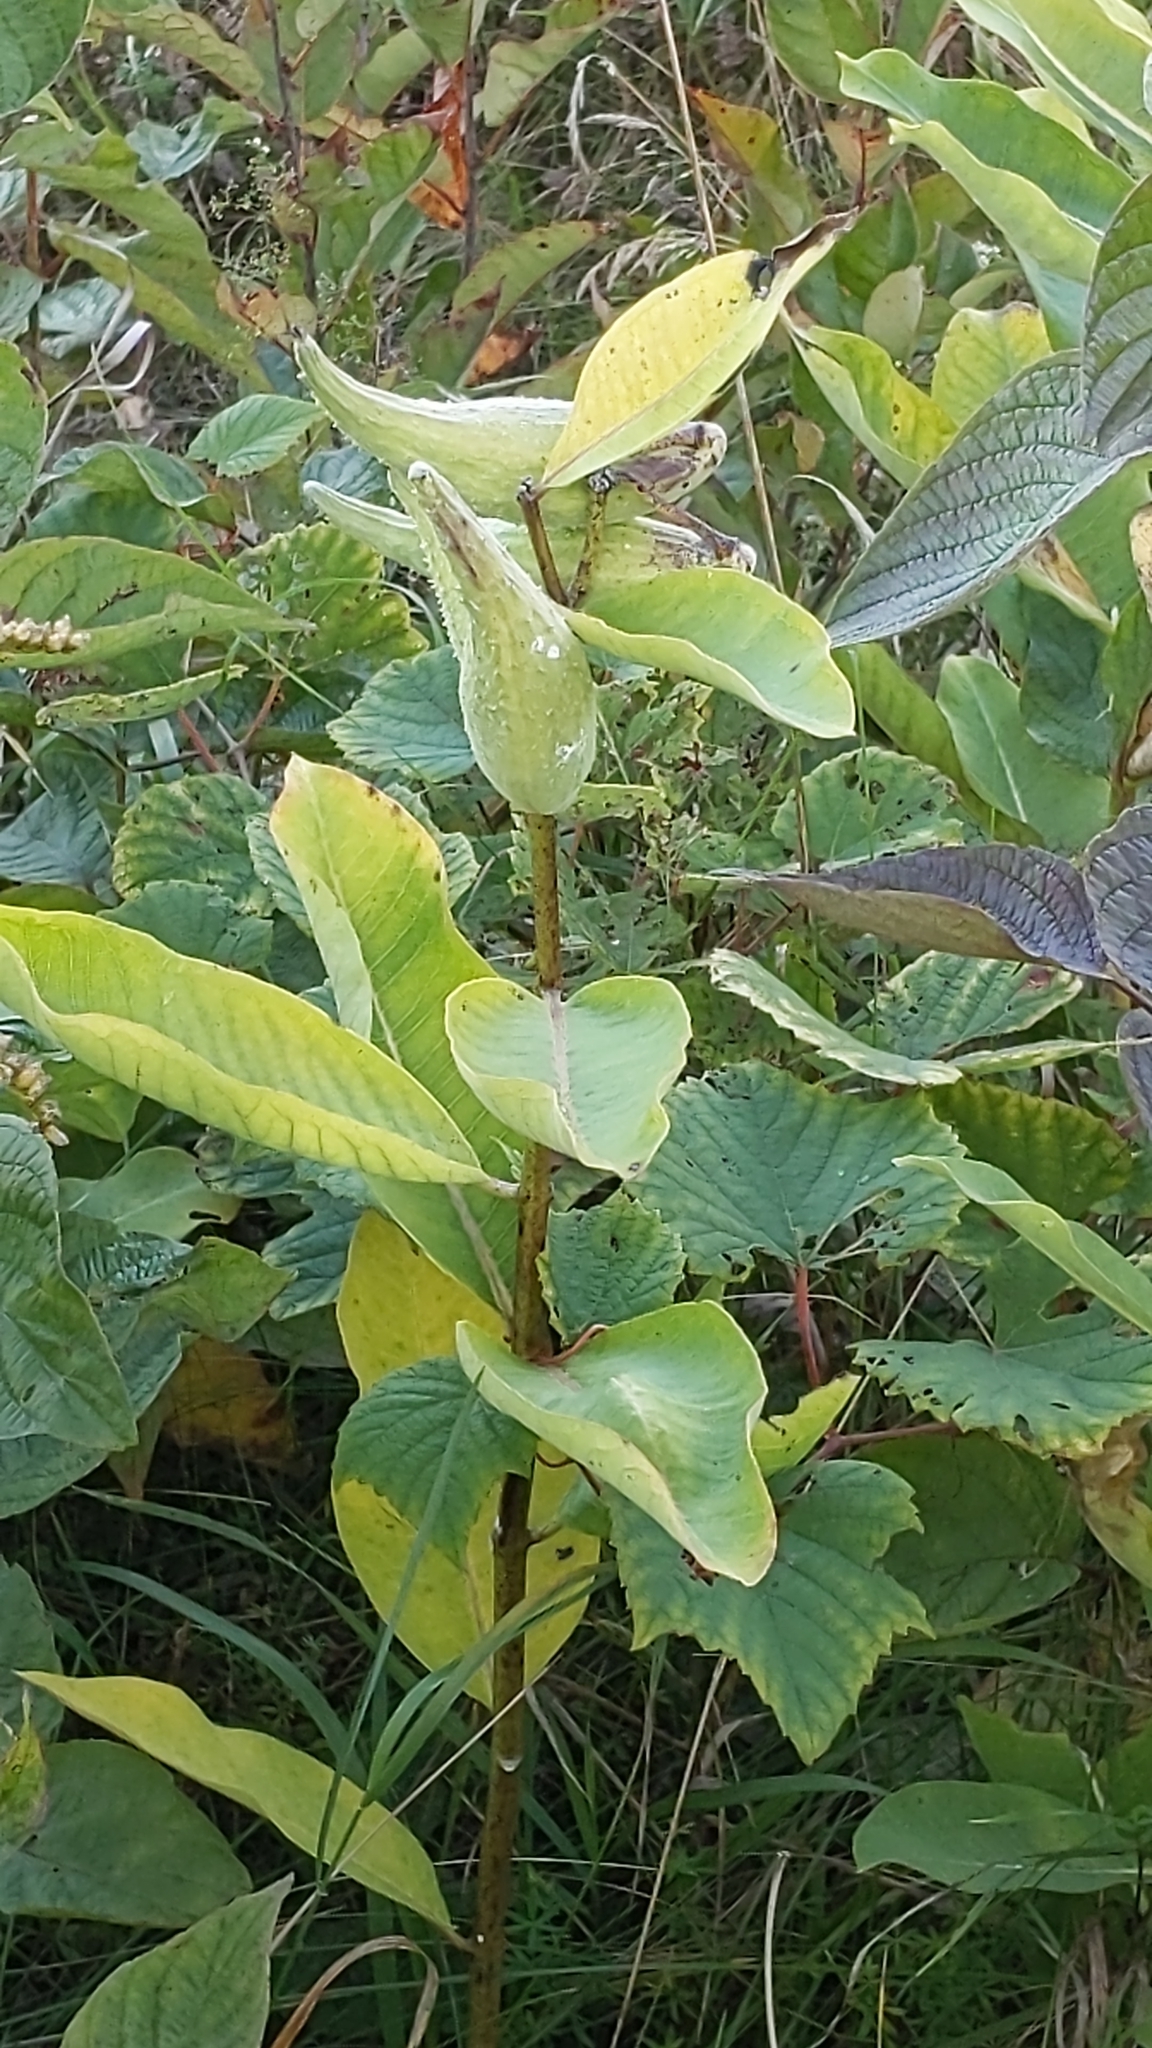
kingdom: Plantae
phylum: Tracheophyta
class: Magnoliopsida
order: Gentianales
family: Apocynaceae
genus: Asclepias
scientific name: Asclepias syriaca
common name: Common milkweed
